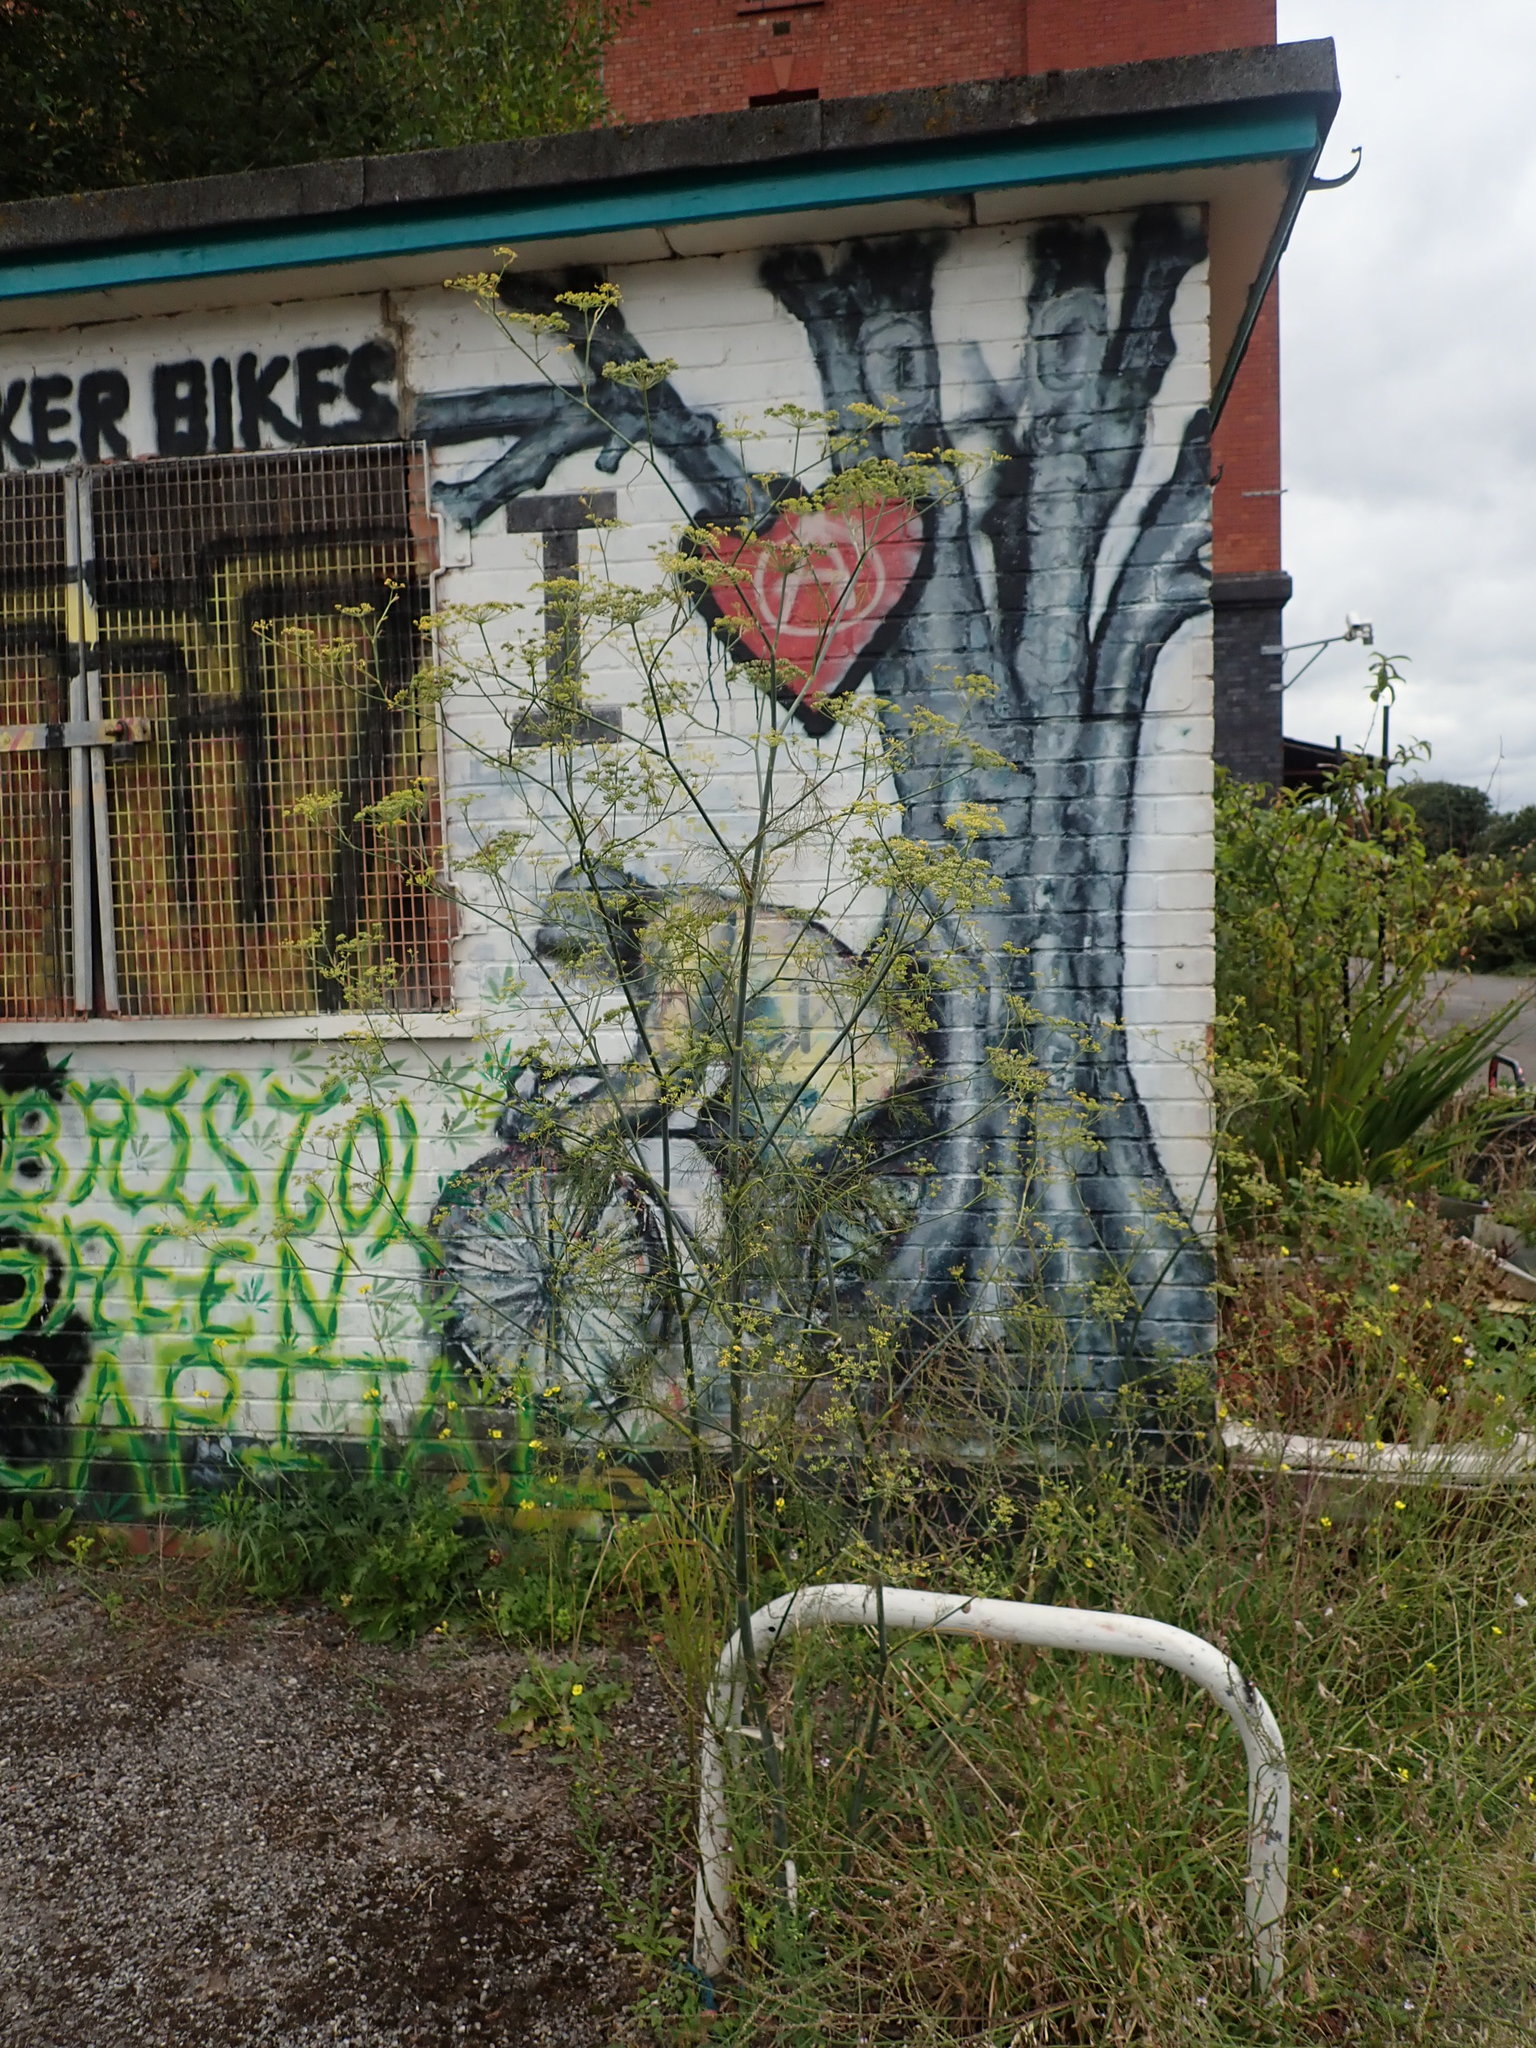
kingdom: Plantae
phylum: Tracheophyta
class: Magnoliopsida
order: Apiales
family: Apiaceae
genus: Foeniculum
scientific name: Foeniculum vulgare
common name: Fennel
